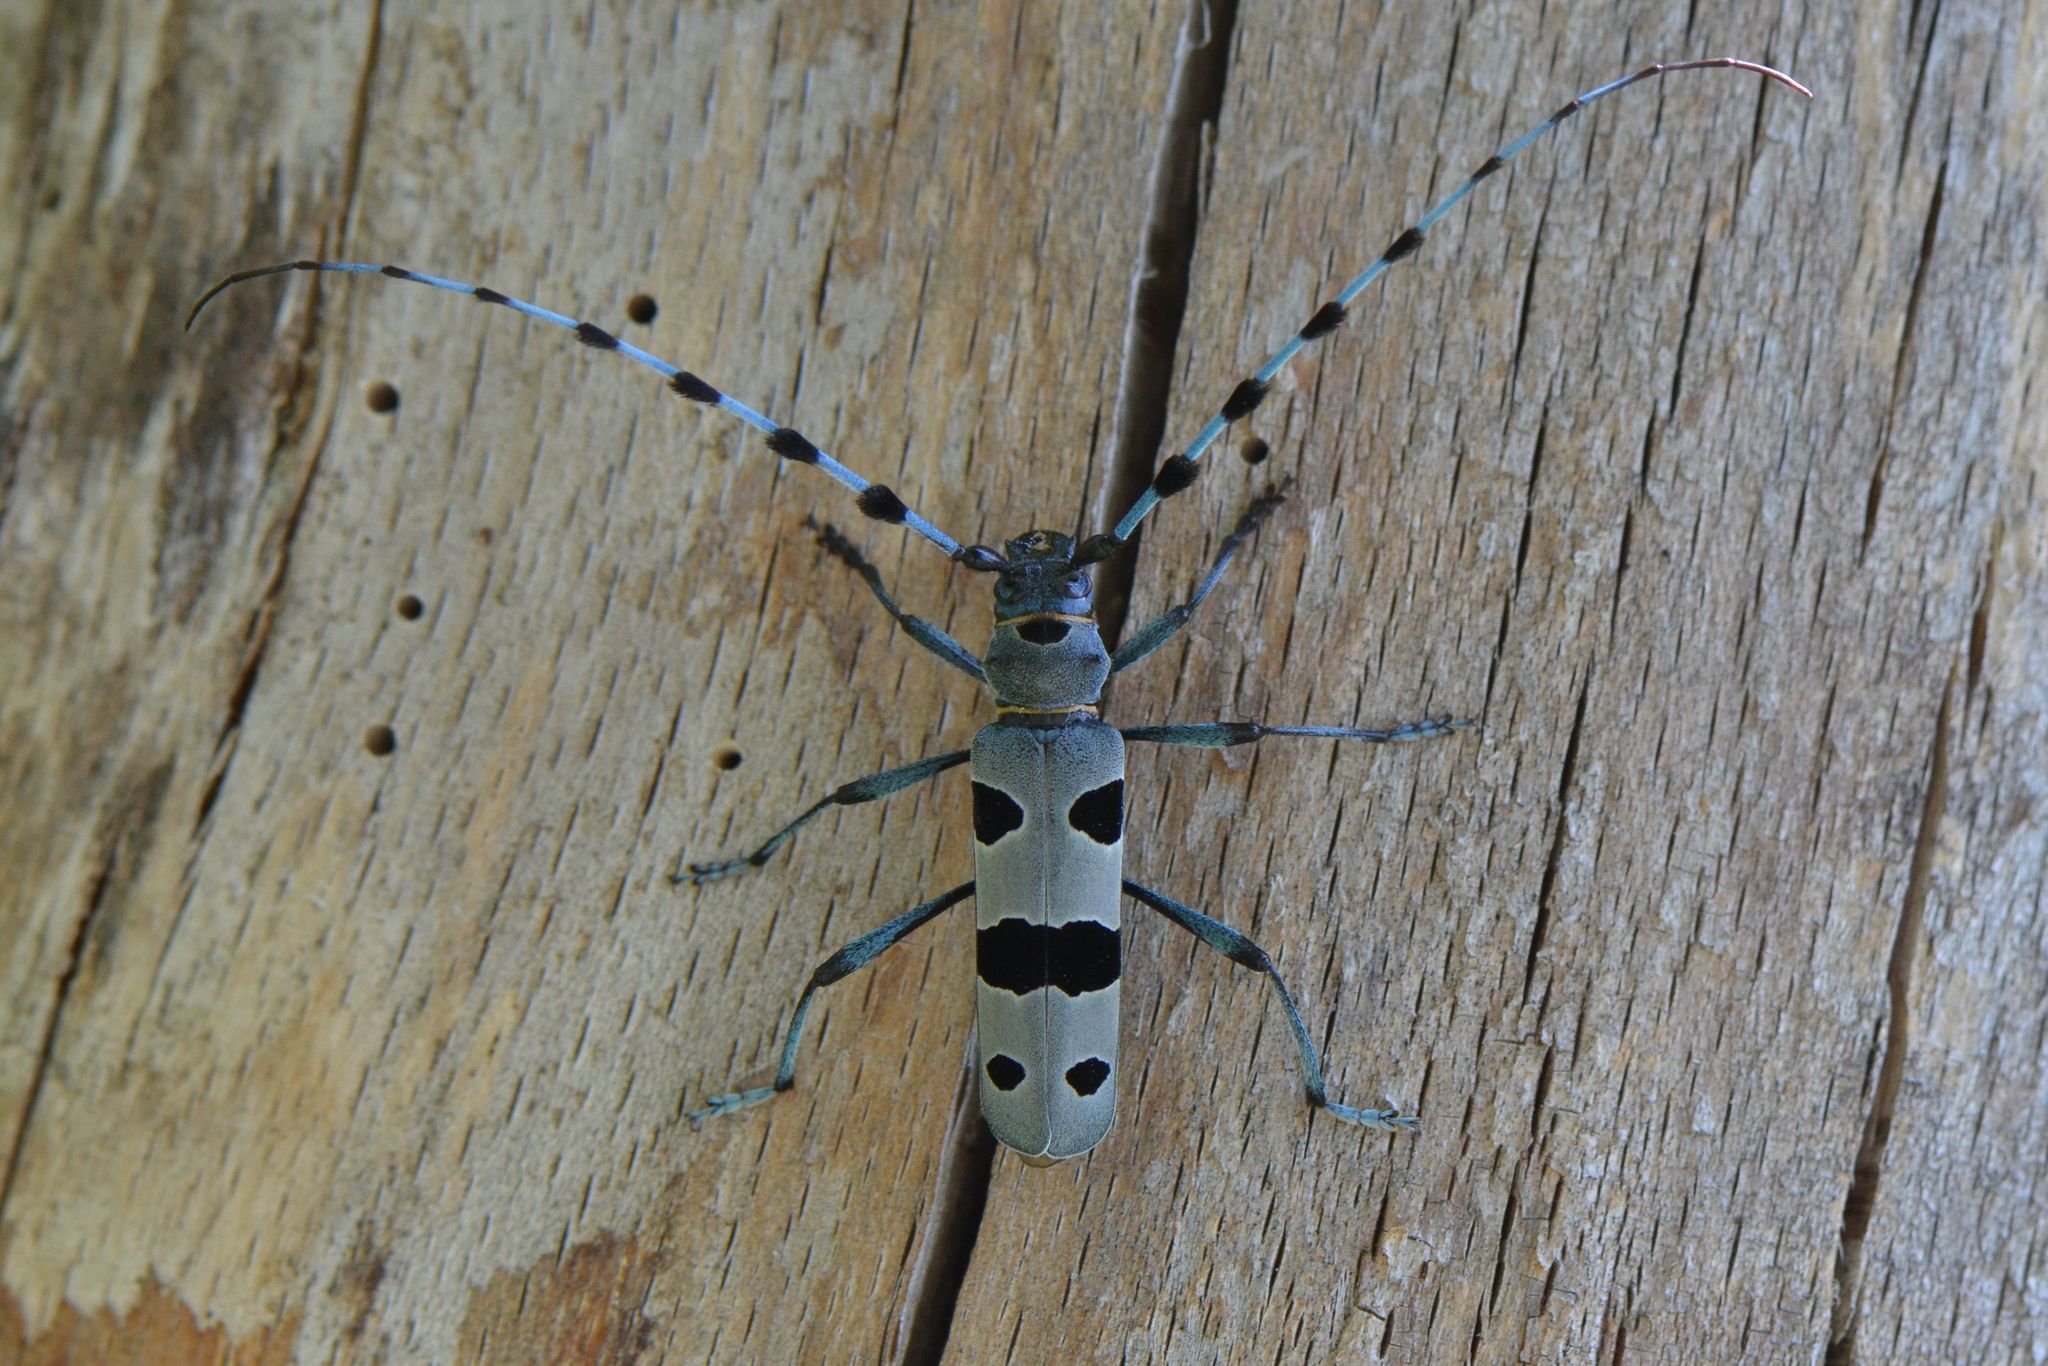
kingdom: Animalia
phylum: Arthropoda
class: Insecta
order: Coleoptera
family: Cerambycidae
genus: Rosalia
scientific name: Rosalia alpina
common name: Rosalia longicorn
